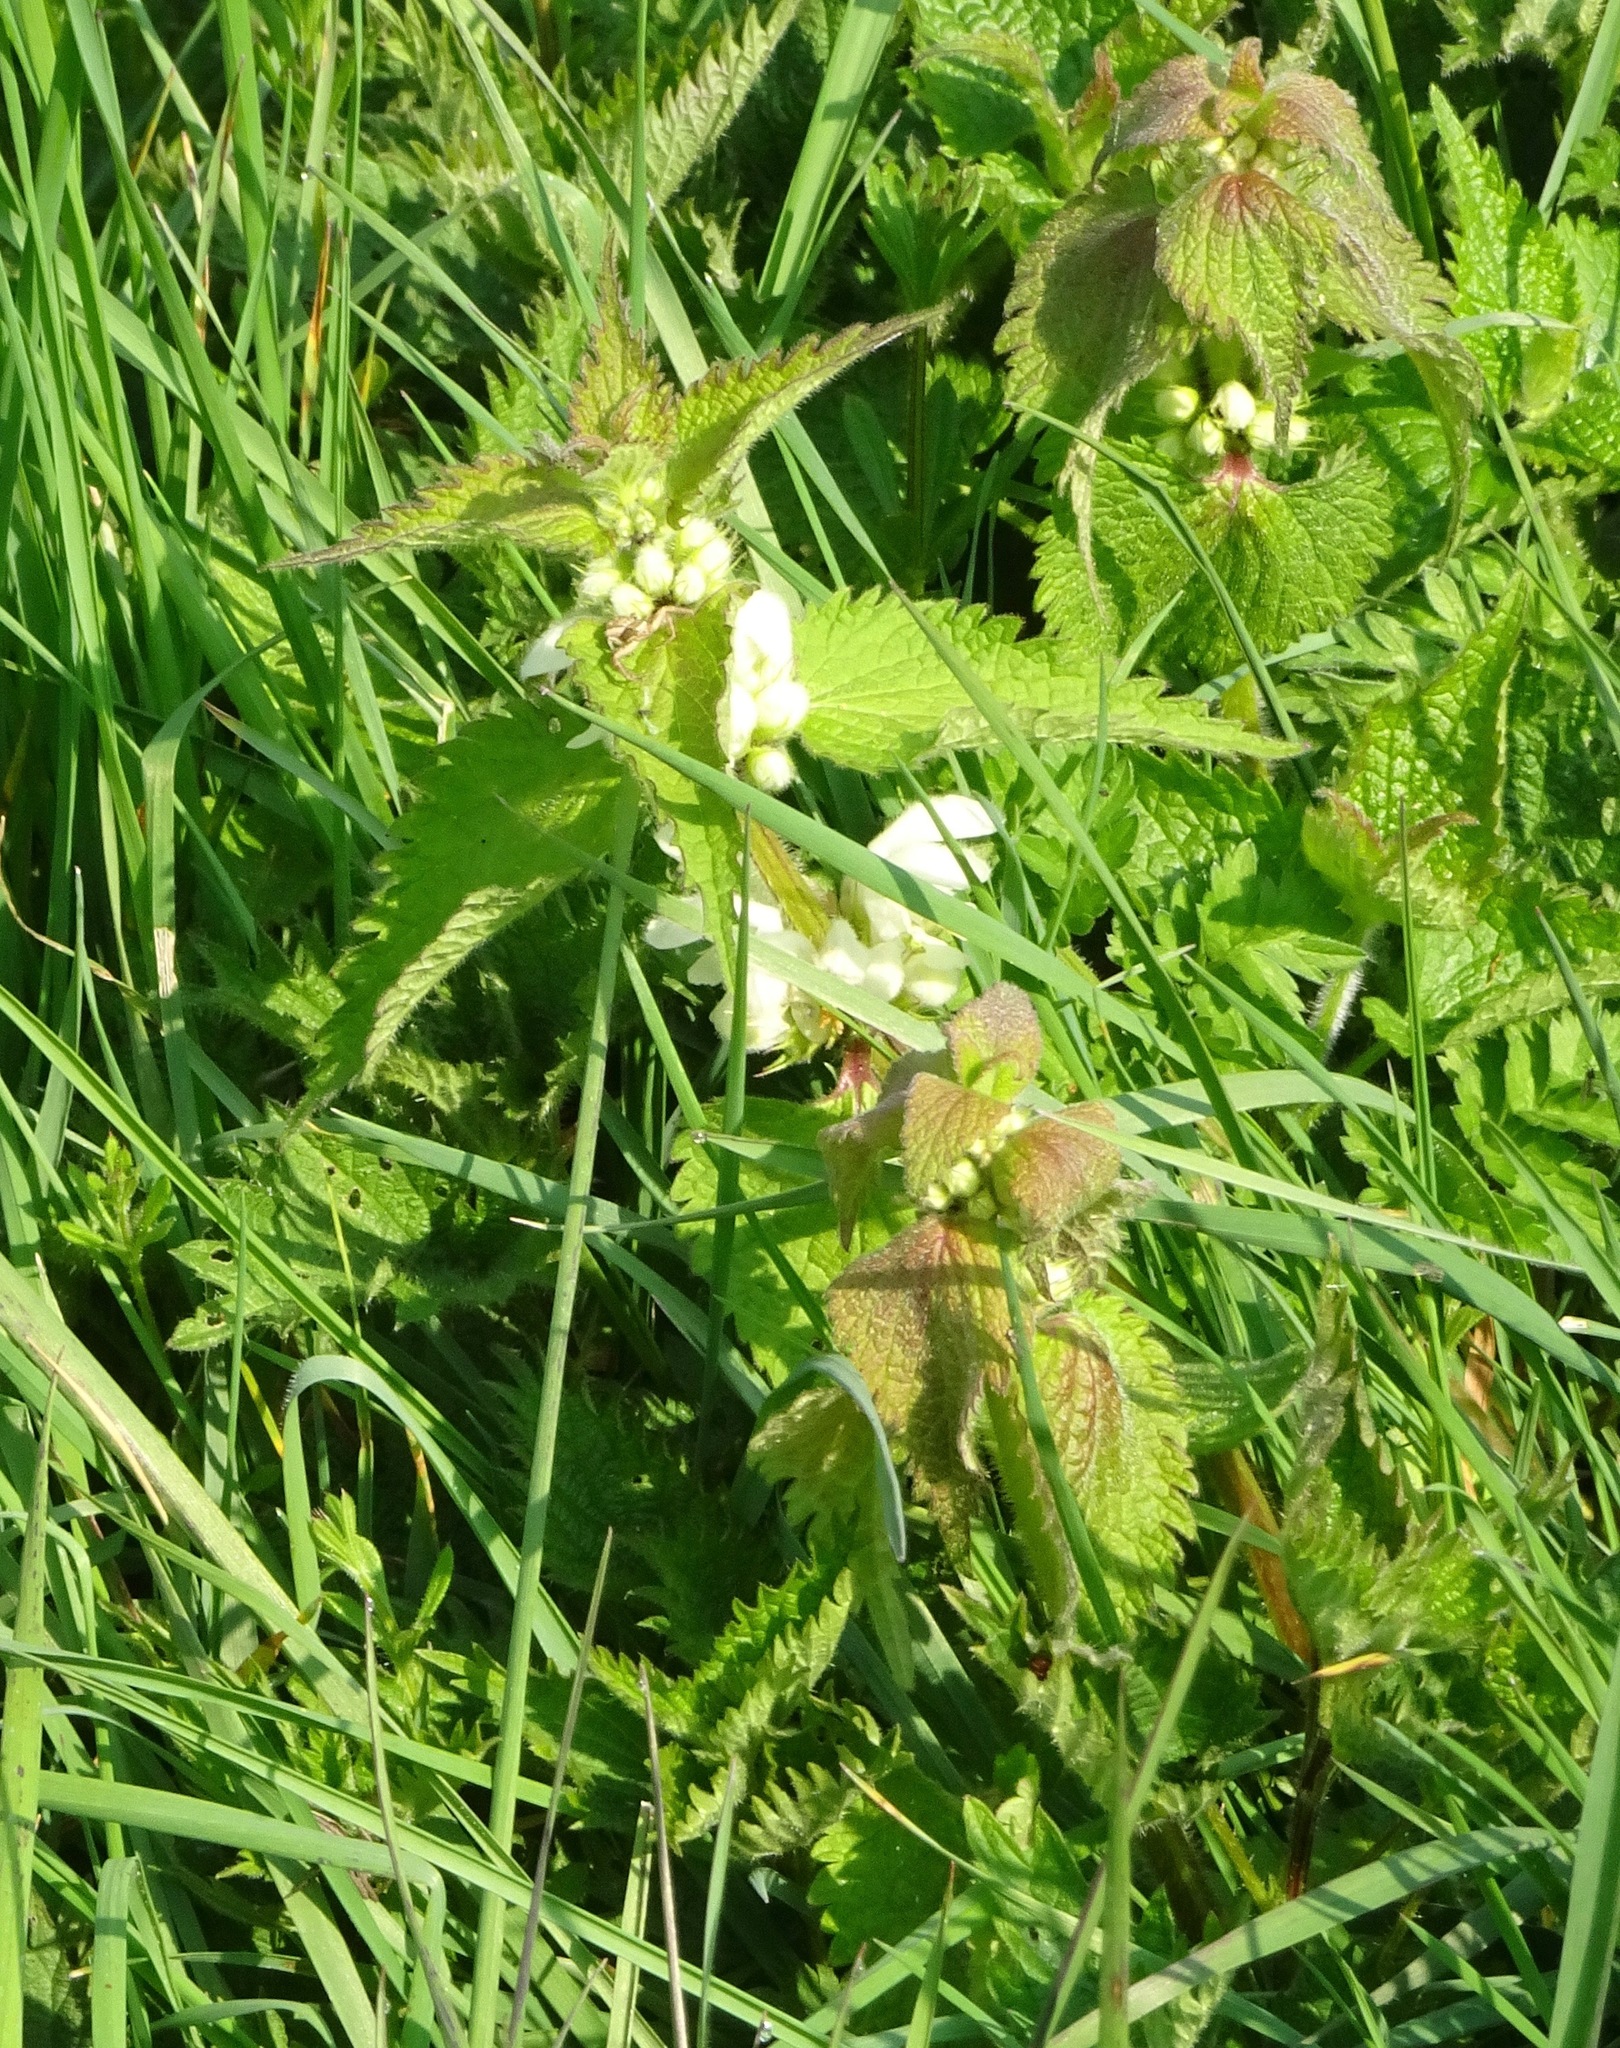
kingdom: Plantae
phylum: Tracheophyta
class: Magnoliopsida
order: Lamiales
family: Lamiaceae
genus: Lamium
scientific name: Lamium album
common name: White dead-nettle
